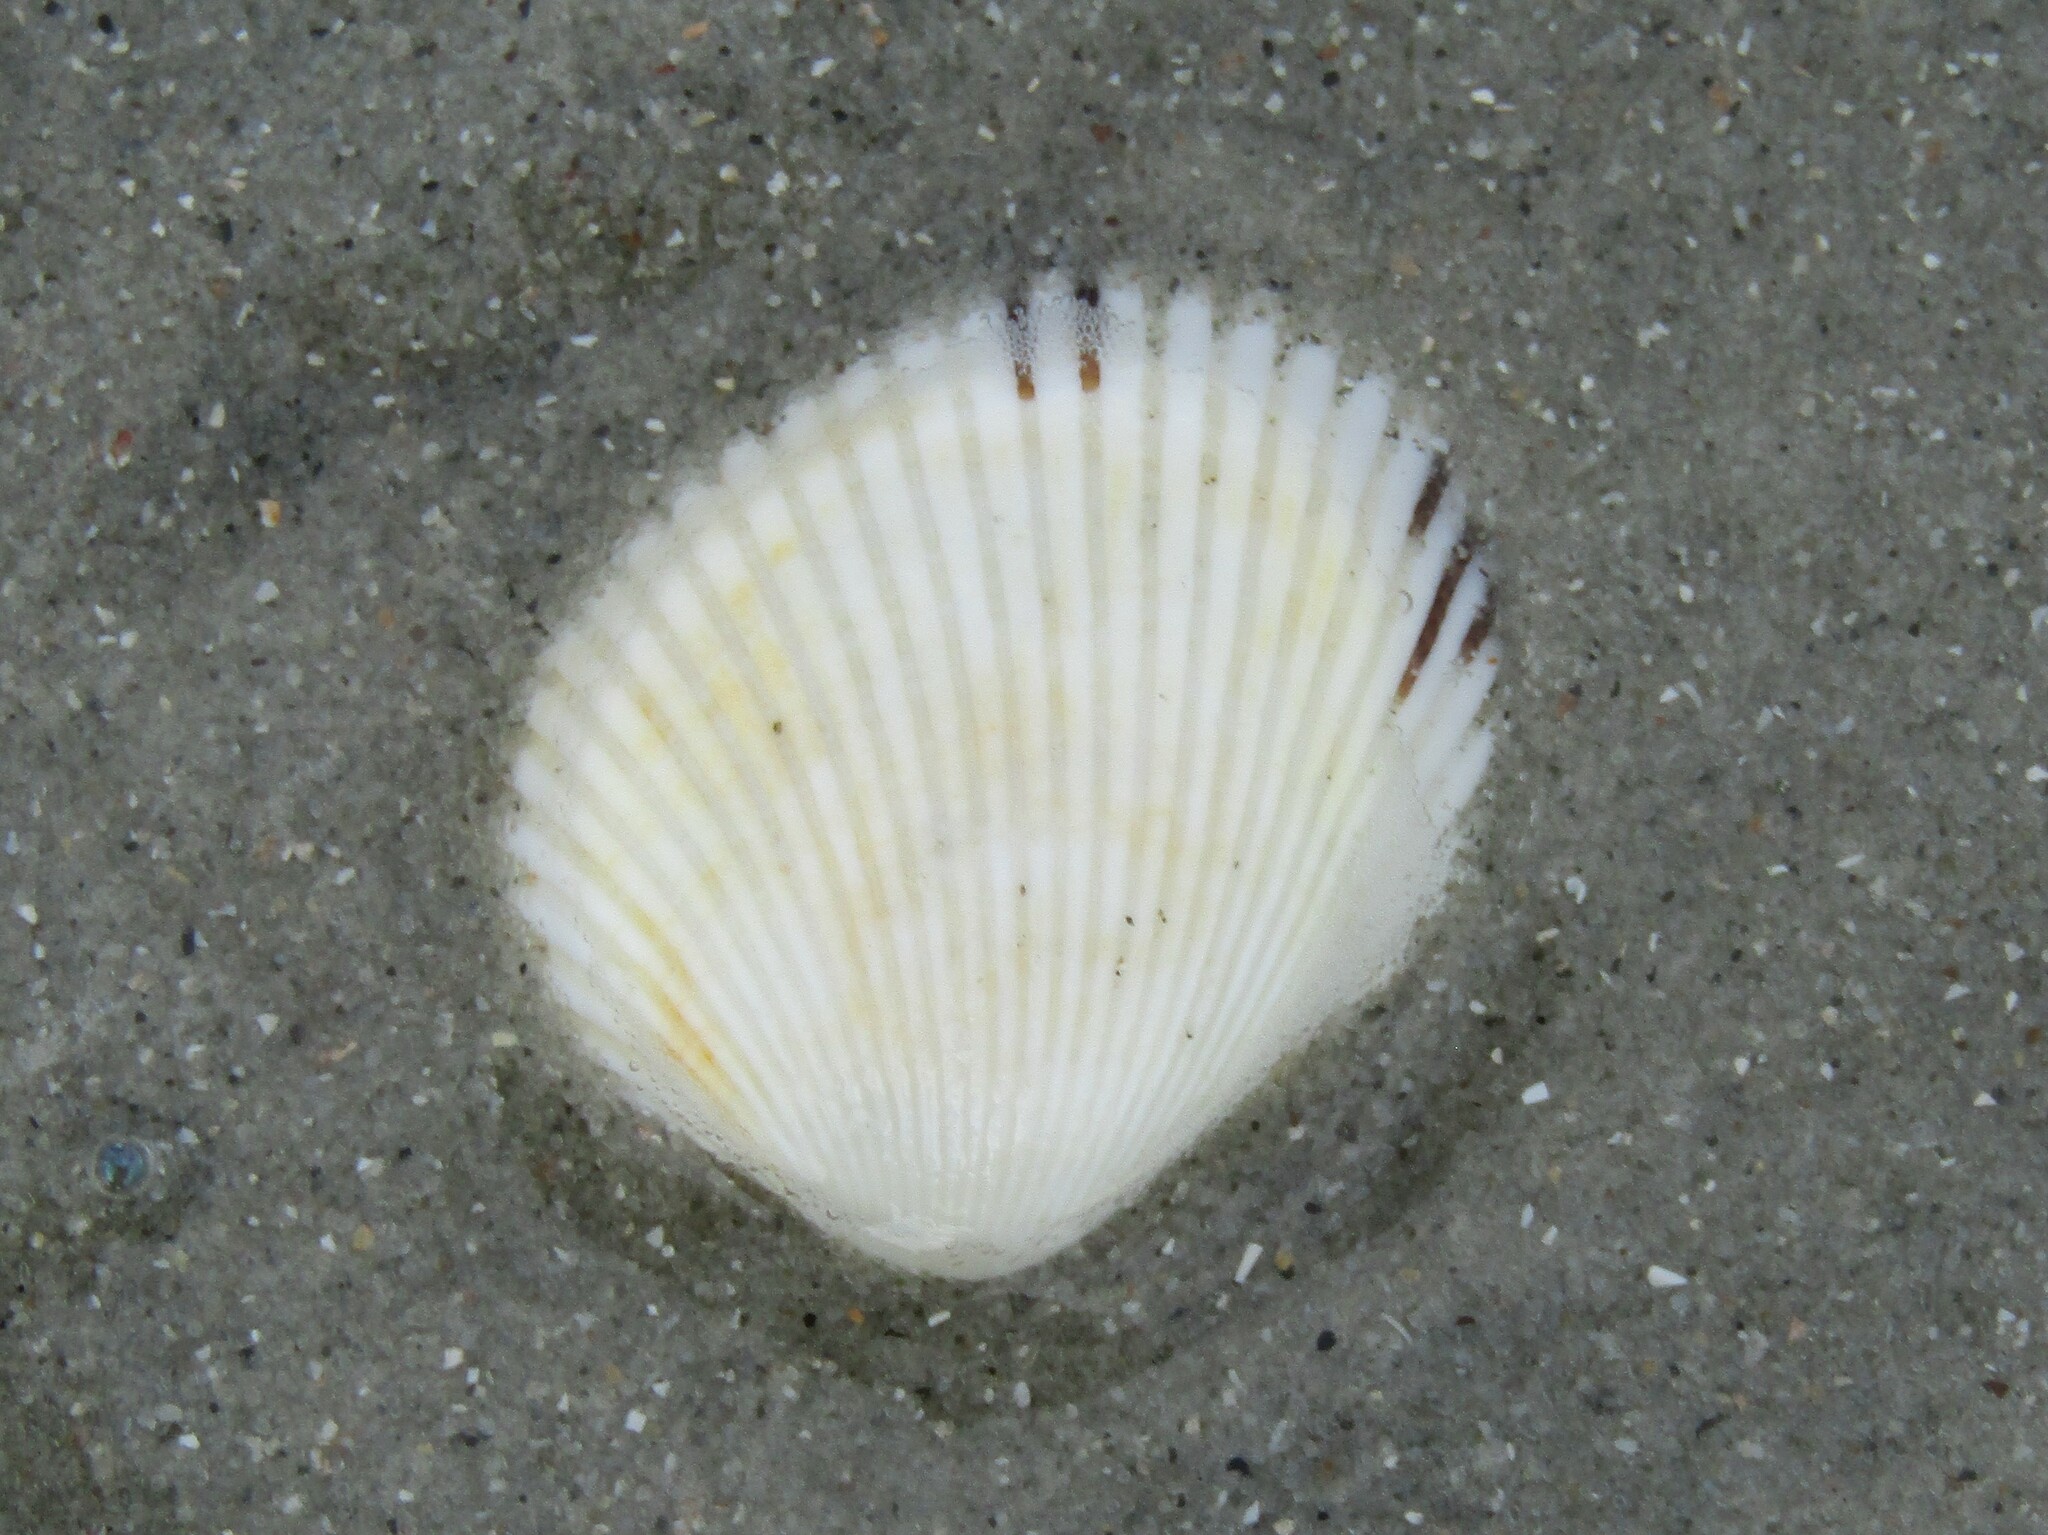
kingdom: Animalia
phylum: Mollusca
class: Bivalvia
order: Arcida
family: Arcidae
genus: Lunarca
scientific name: Lunarca ovalis
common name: Blood ark
